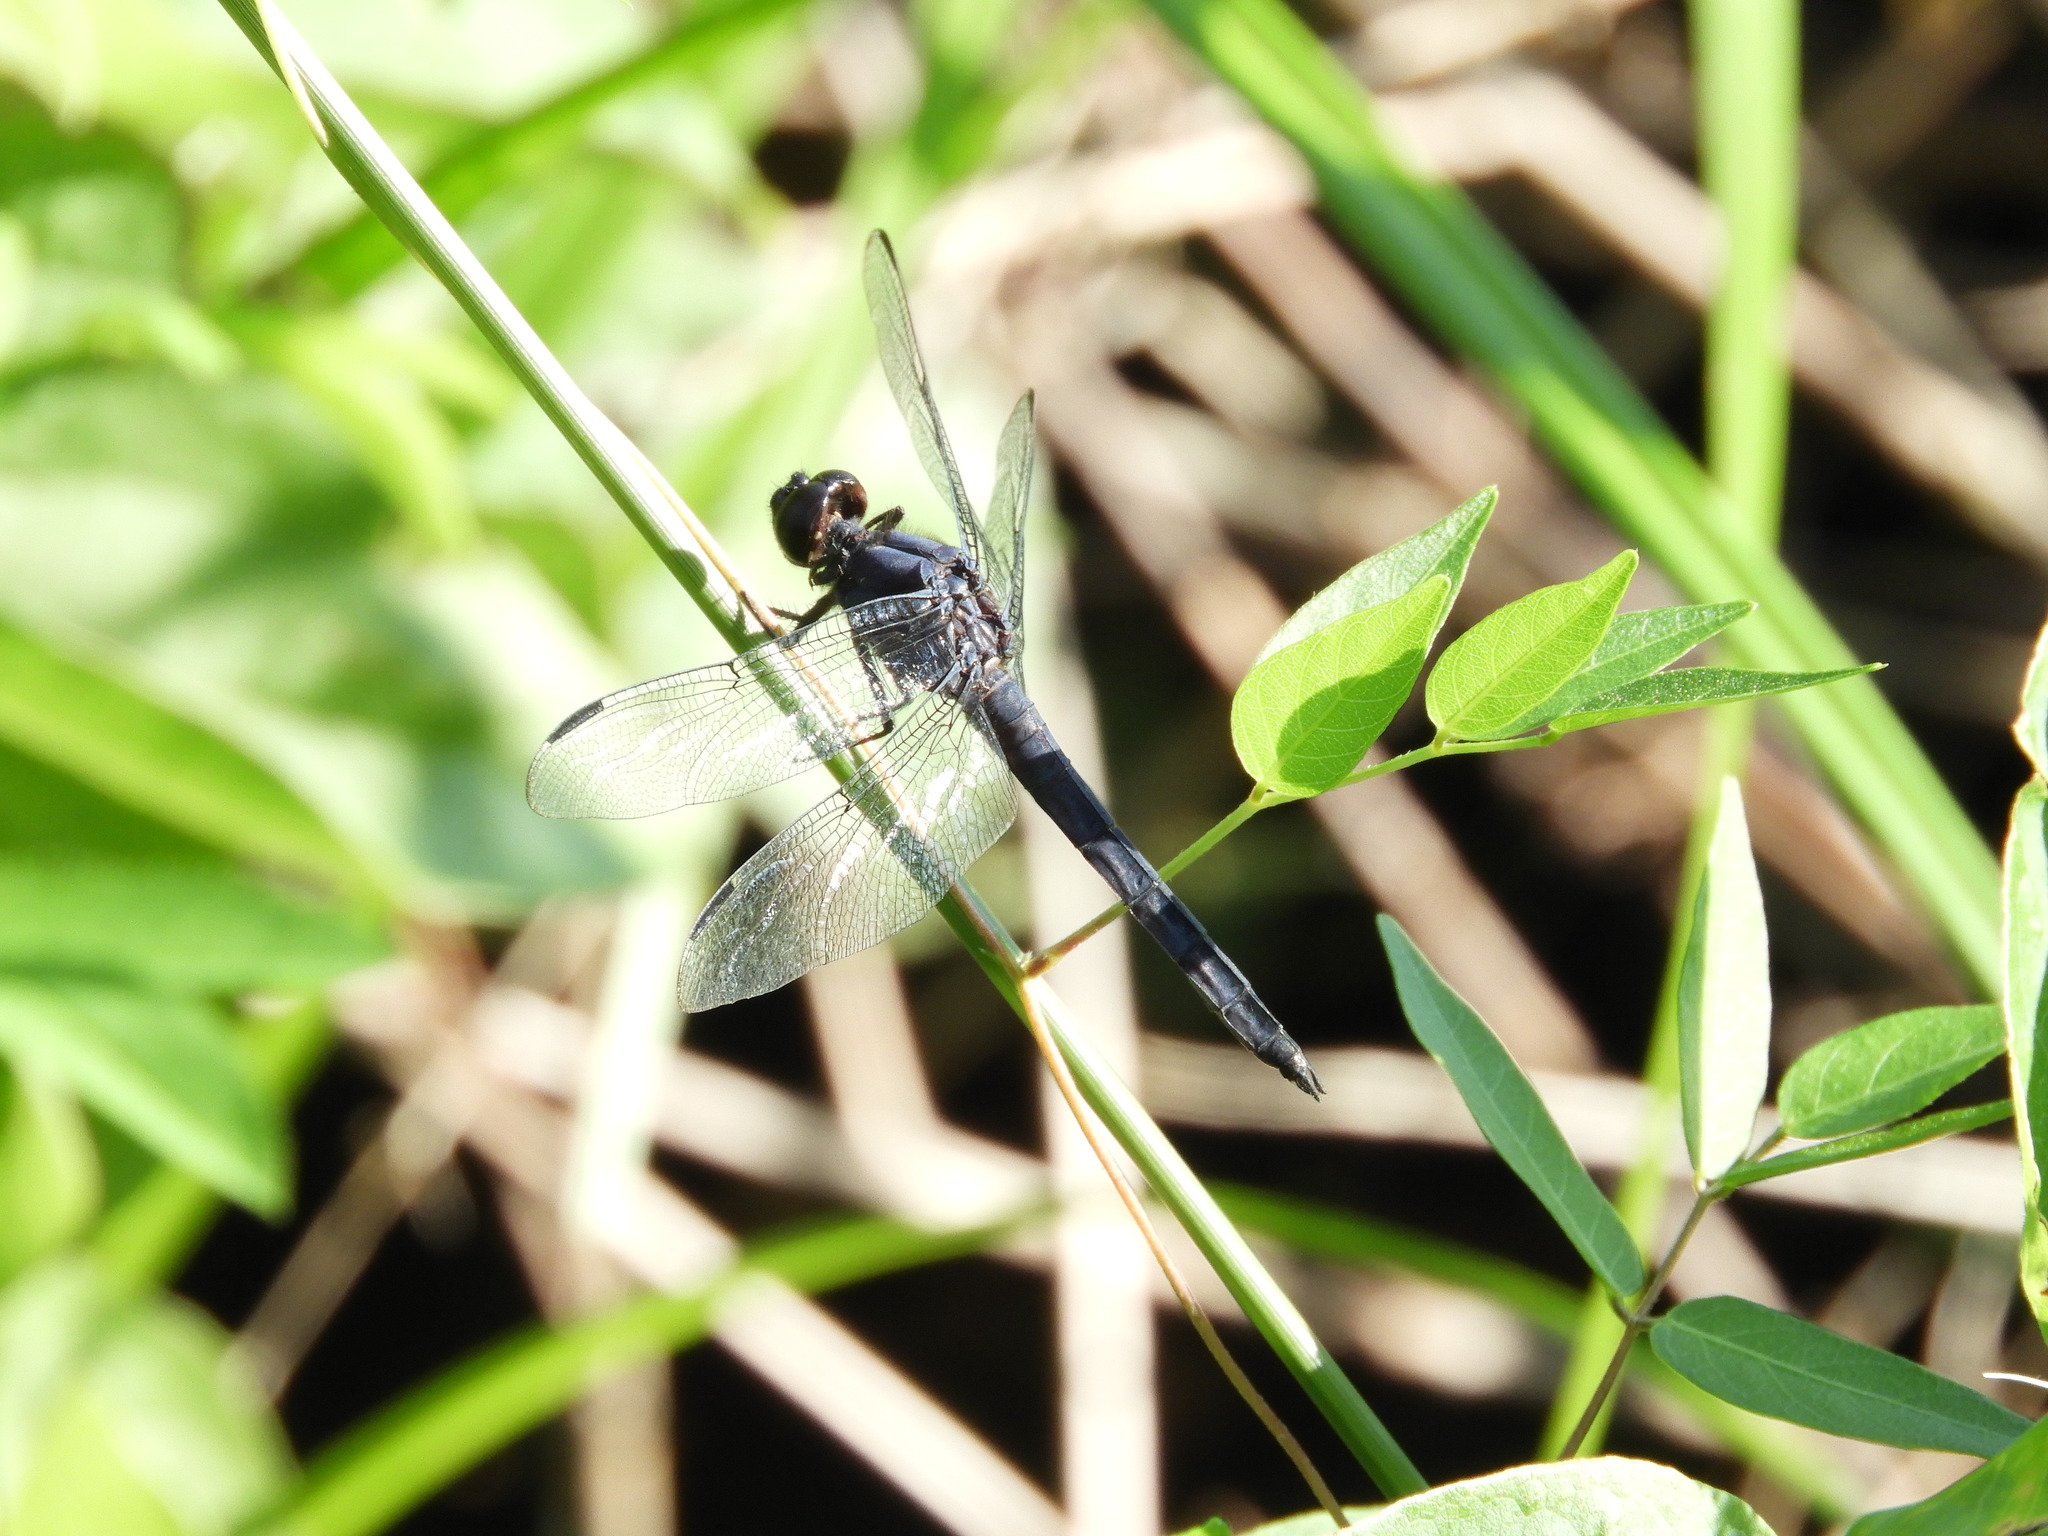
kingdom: Animalia
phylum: Arthropoda
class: Insecta
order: Odonata
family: Libellulidae
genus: Libellula
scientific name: Libellula incesta
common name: Slaty skimmer
